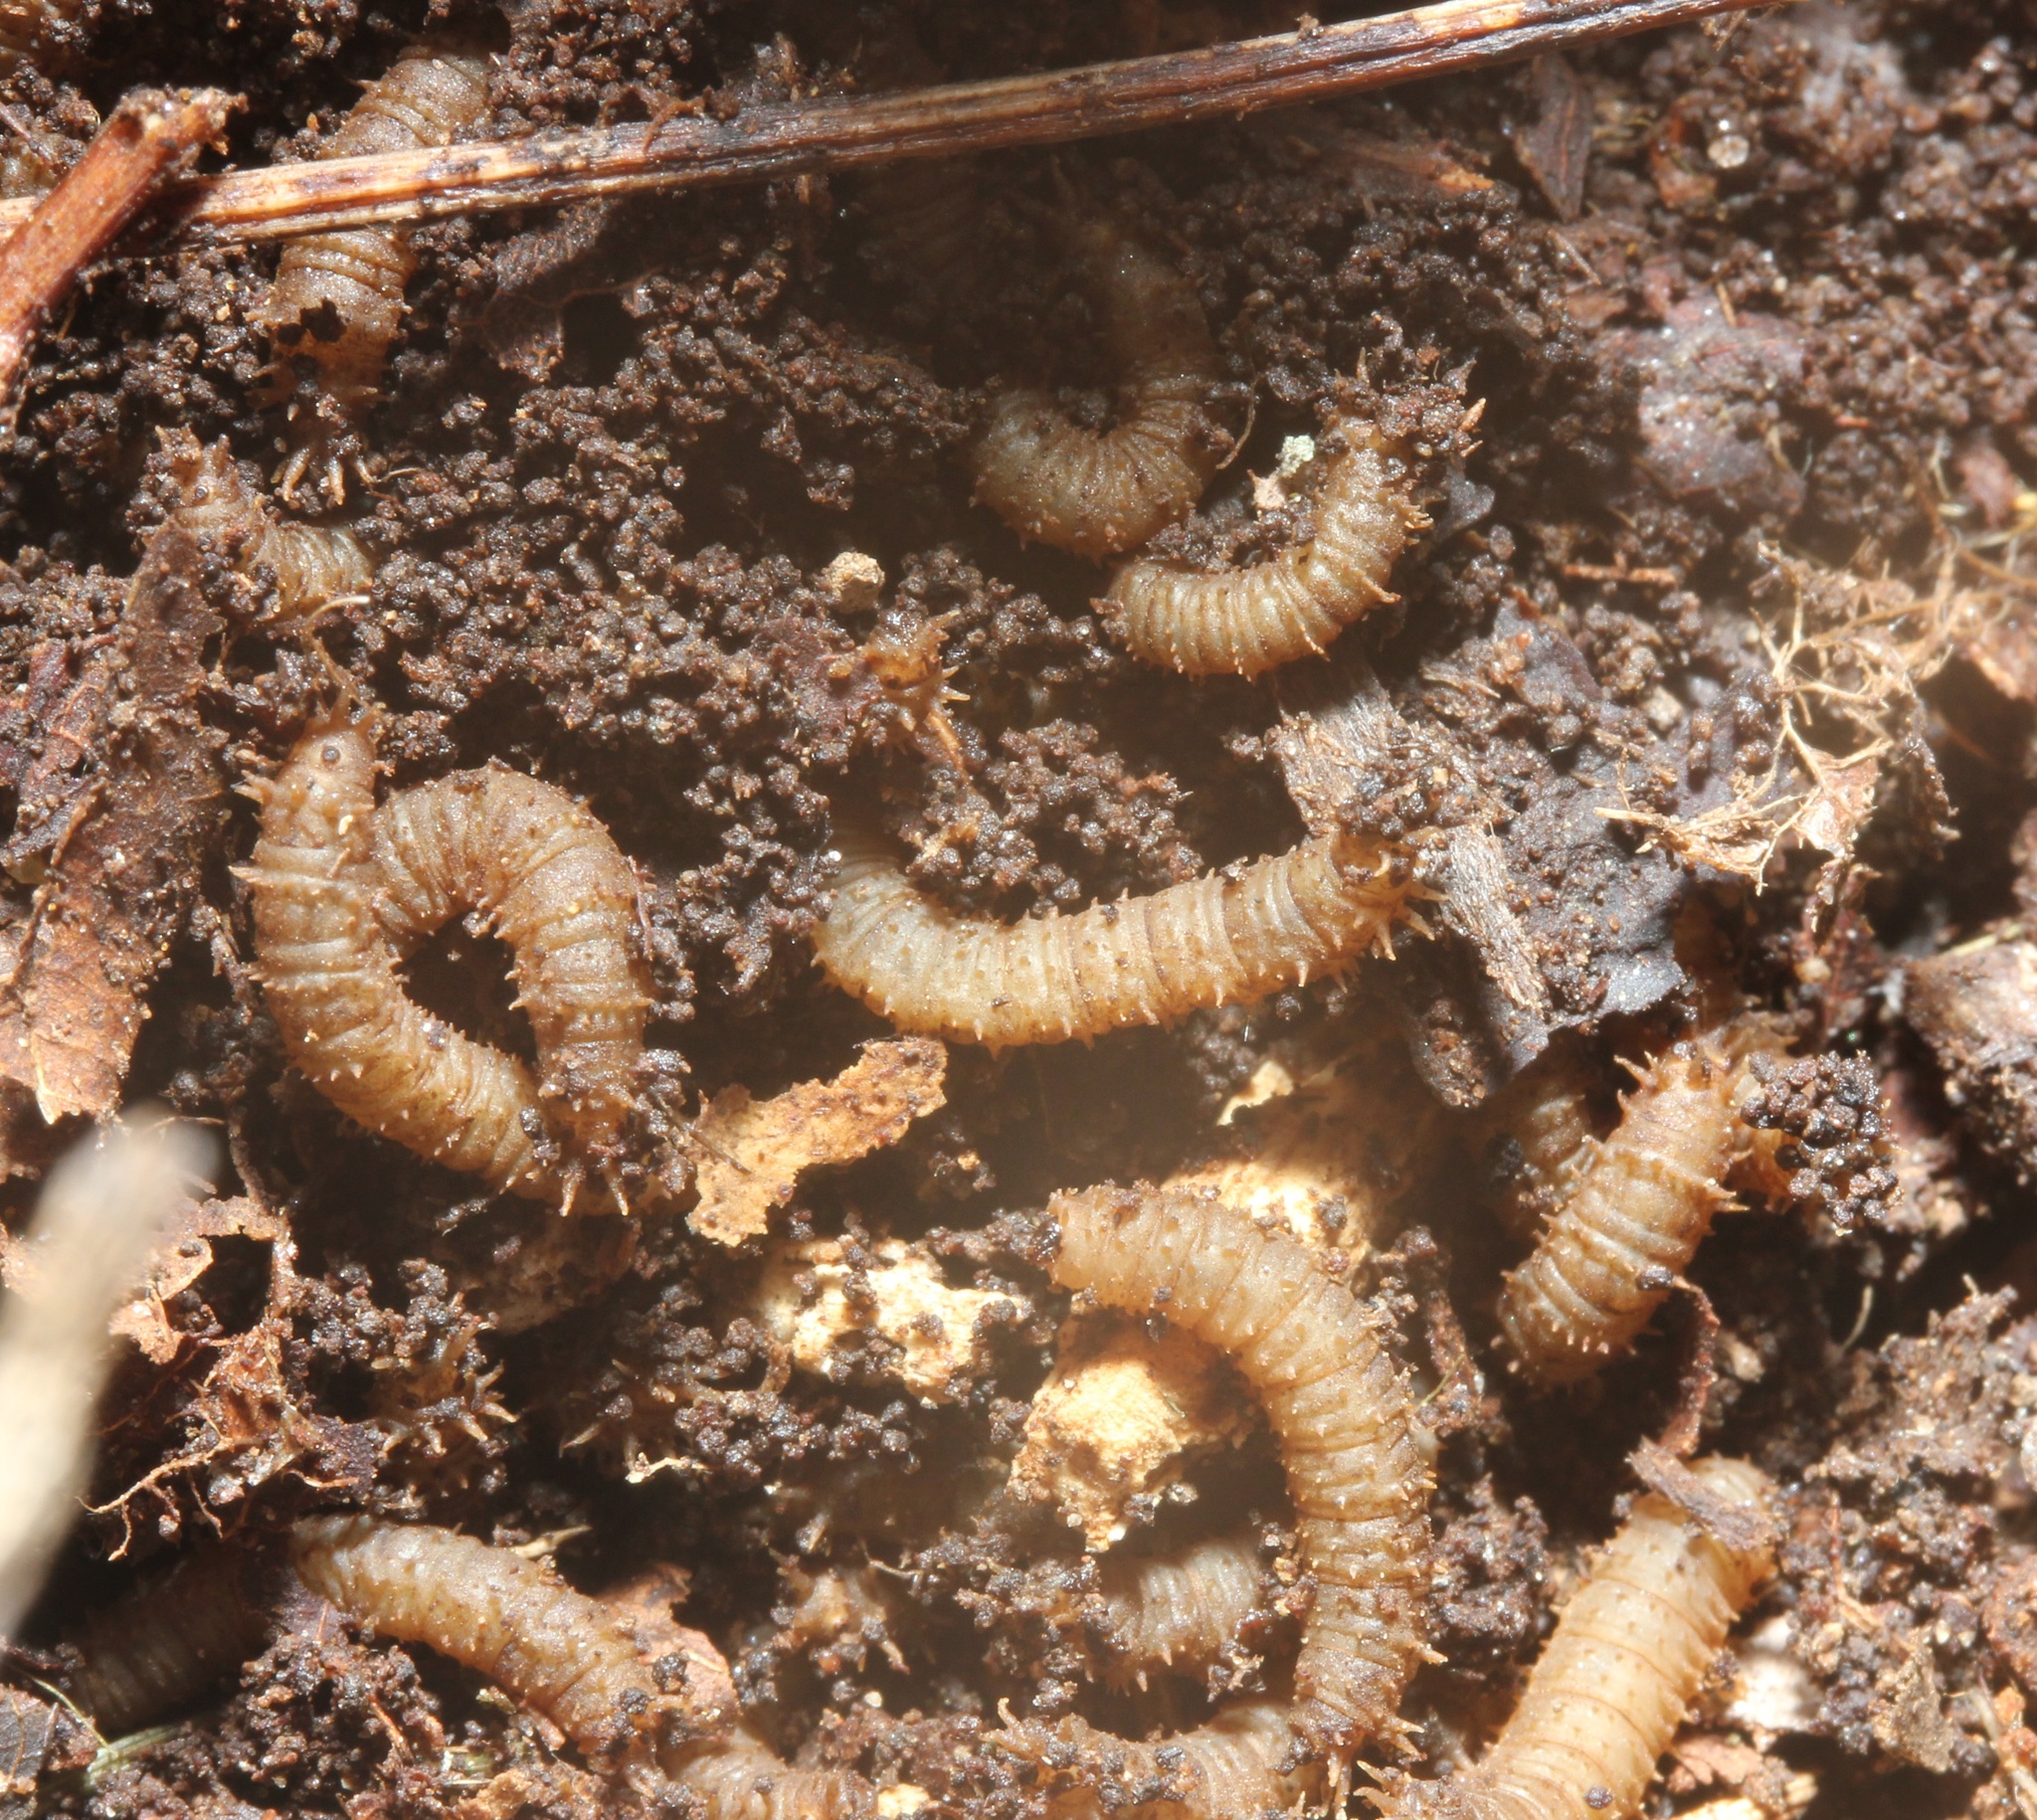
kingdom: Animalia
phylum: Arthropoda
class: Insecta
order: Diptera
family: Bibionidae
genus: Bibio
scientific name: Bibio
